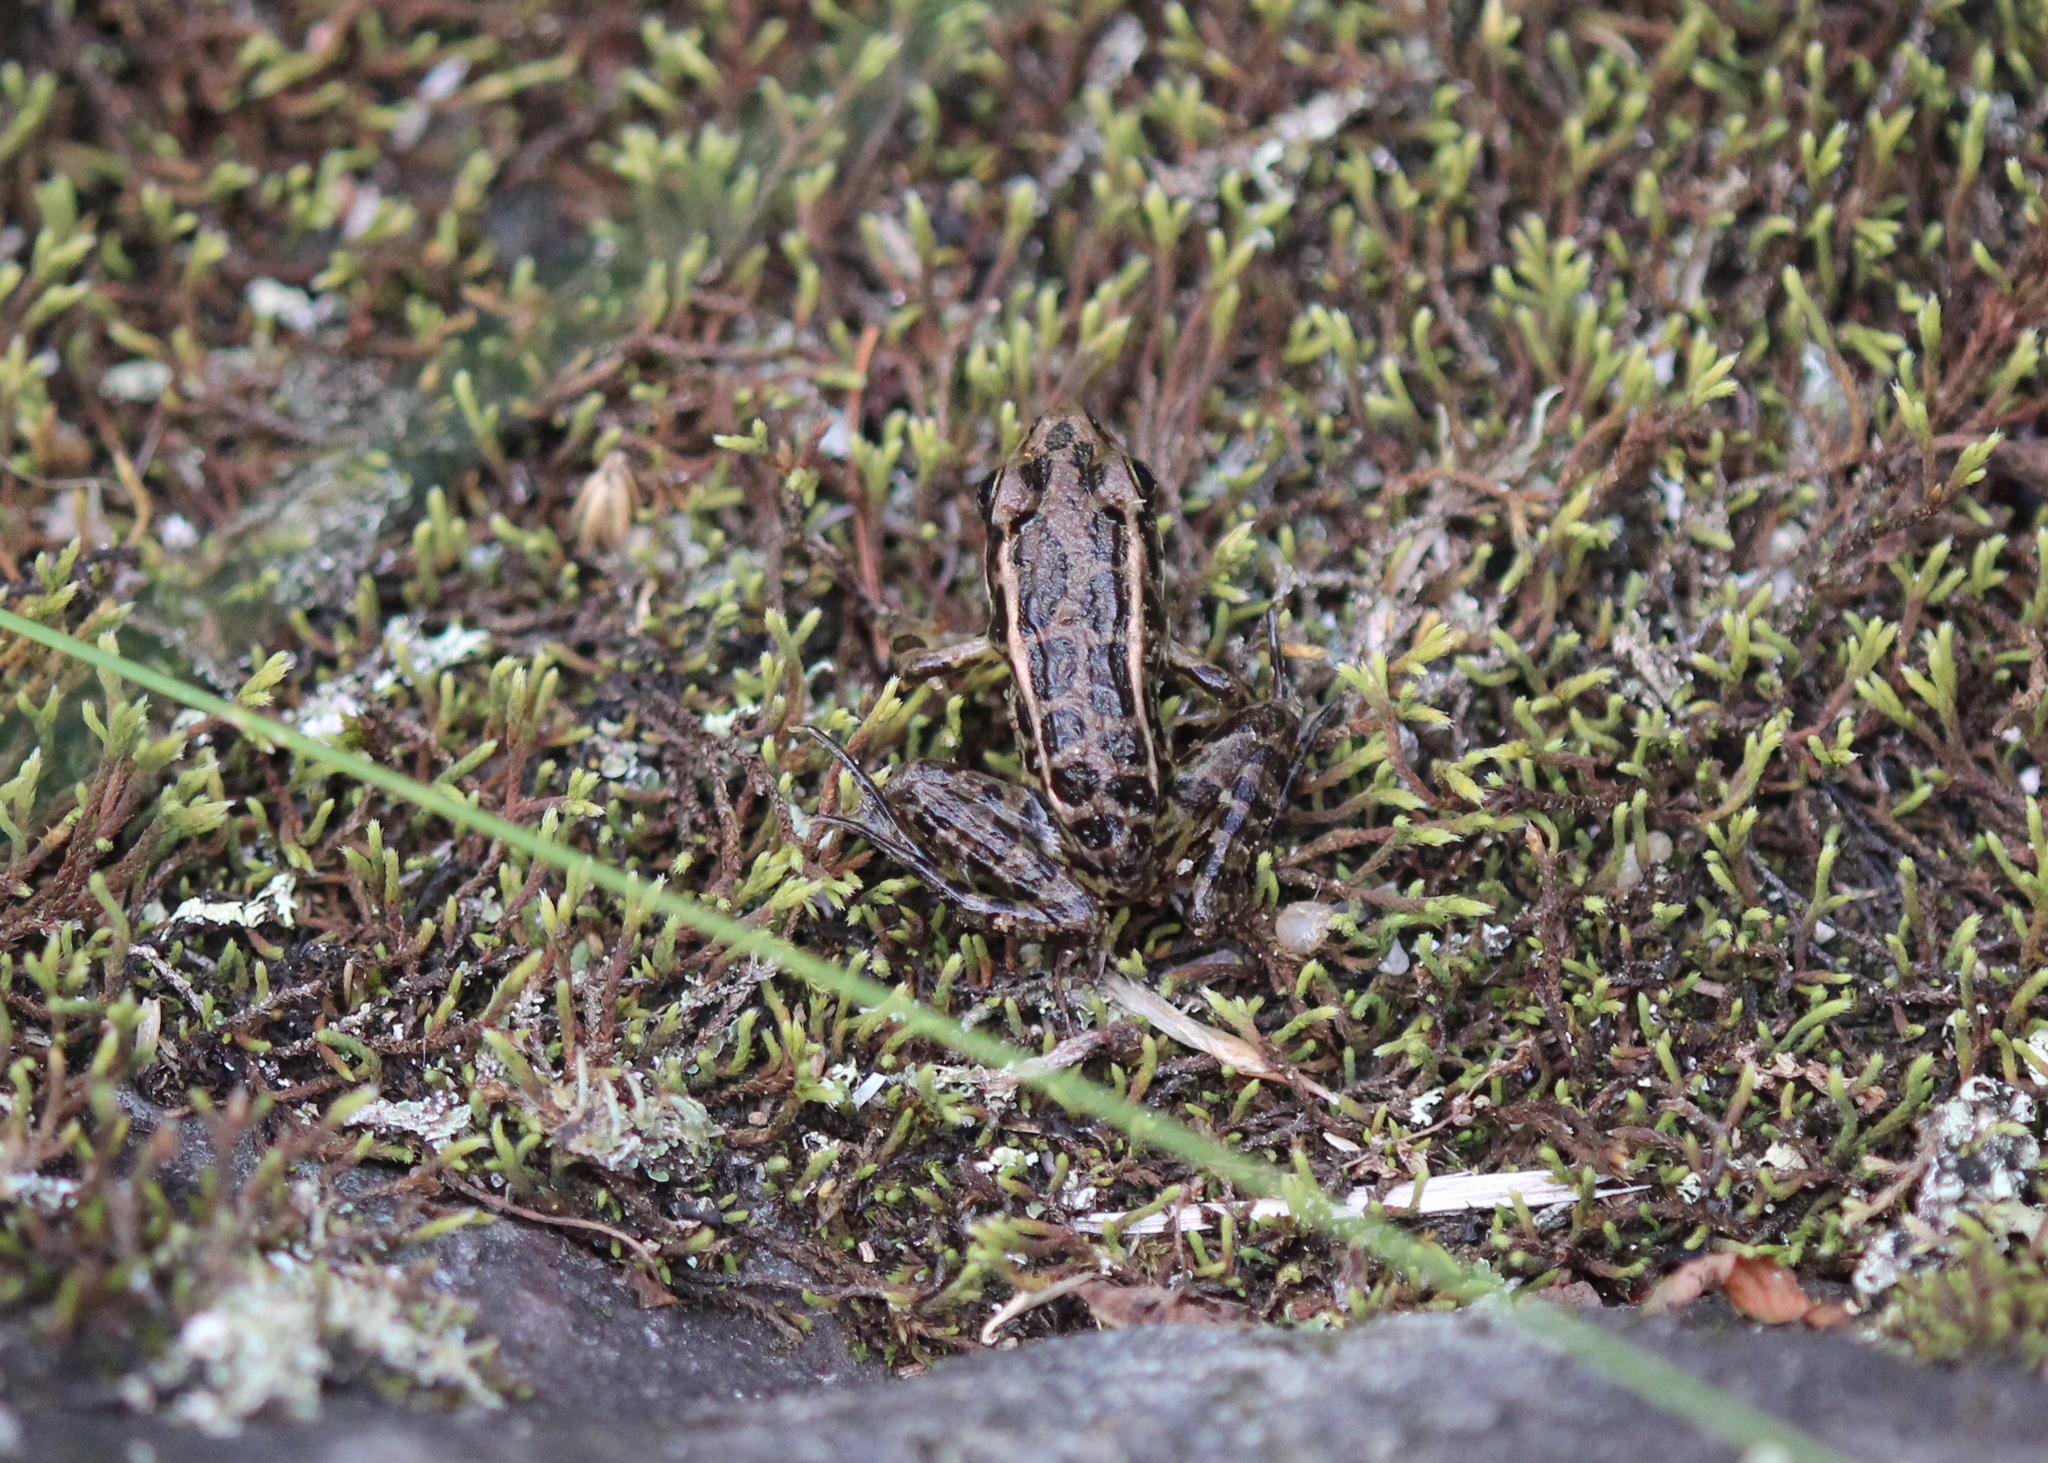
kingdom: Animalia
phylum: Chordata
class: Amphibia
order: Anura
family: Ranidae
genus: Lithobates
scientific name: Lithobates palustris
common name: Pickerel frog
